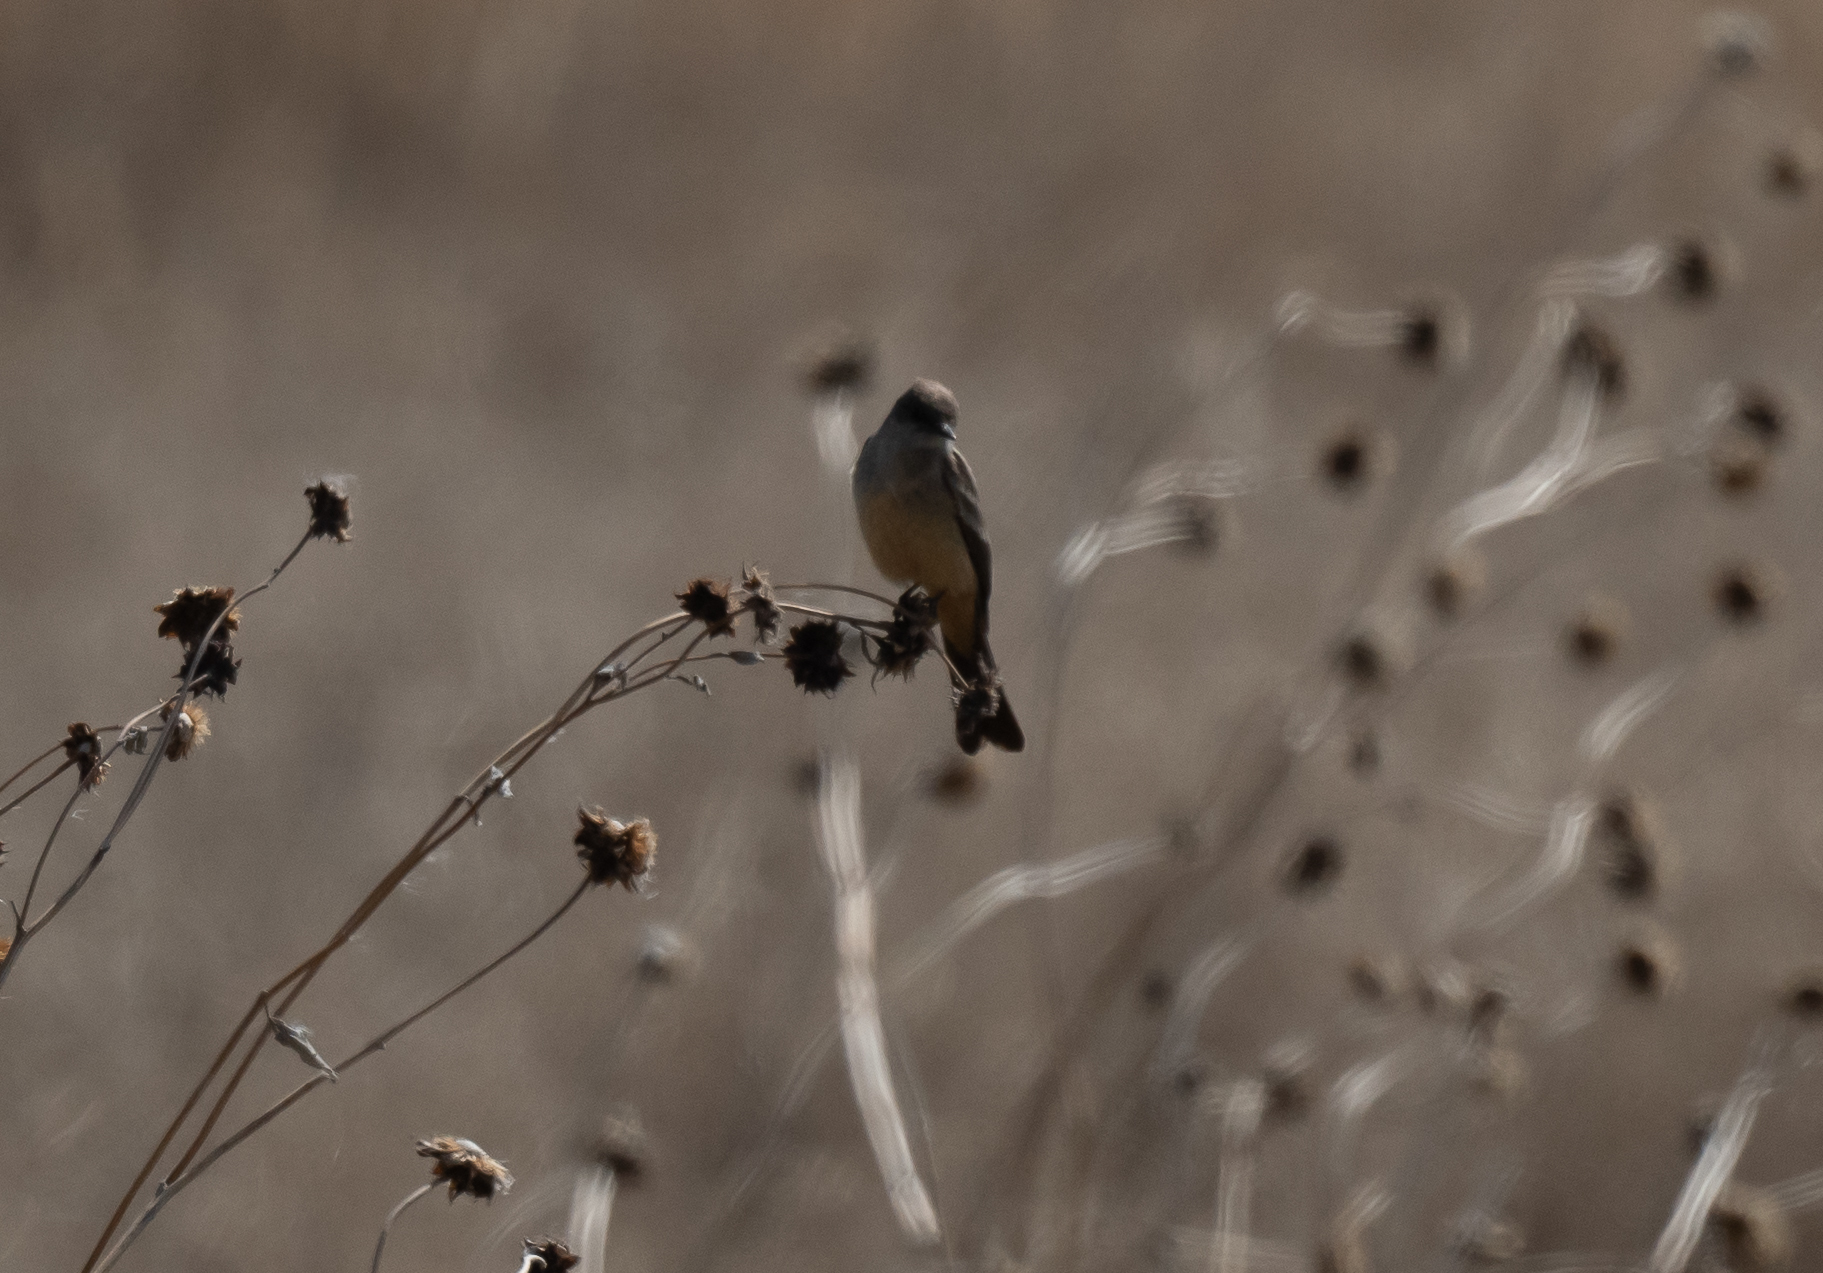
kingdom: Animalia
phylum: Chordata
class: Aves
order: Passeriformes
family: Tyrannidae
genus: Sayornis
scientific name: Sayornis saya
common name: Say's phoebe
